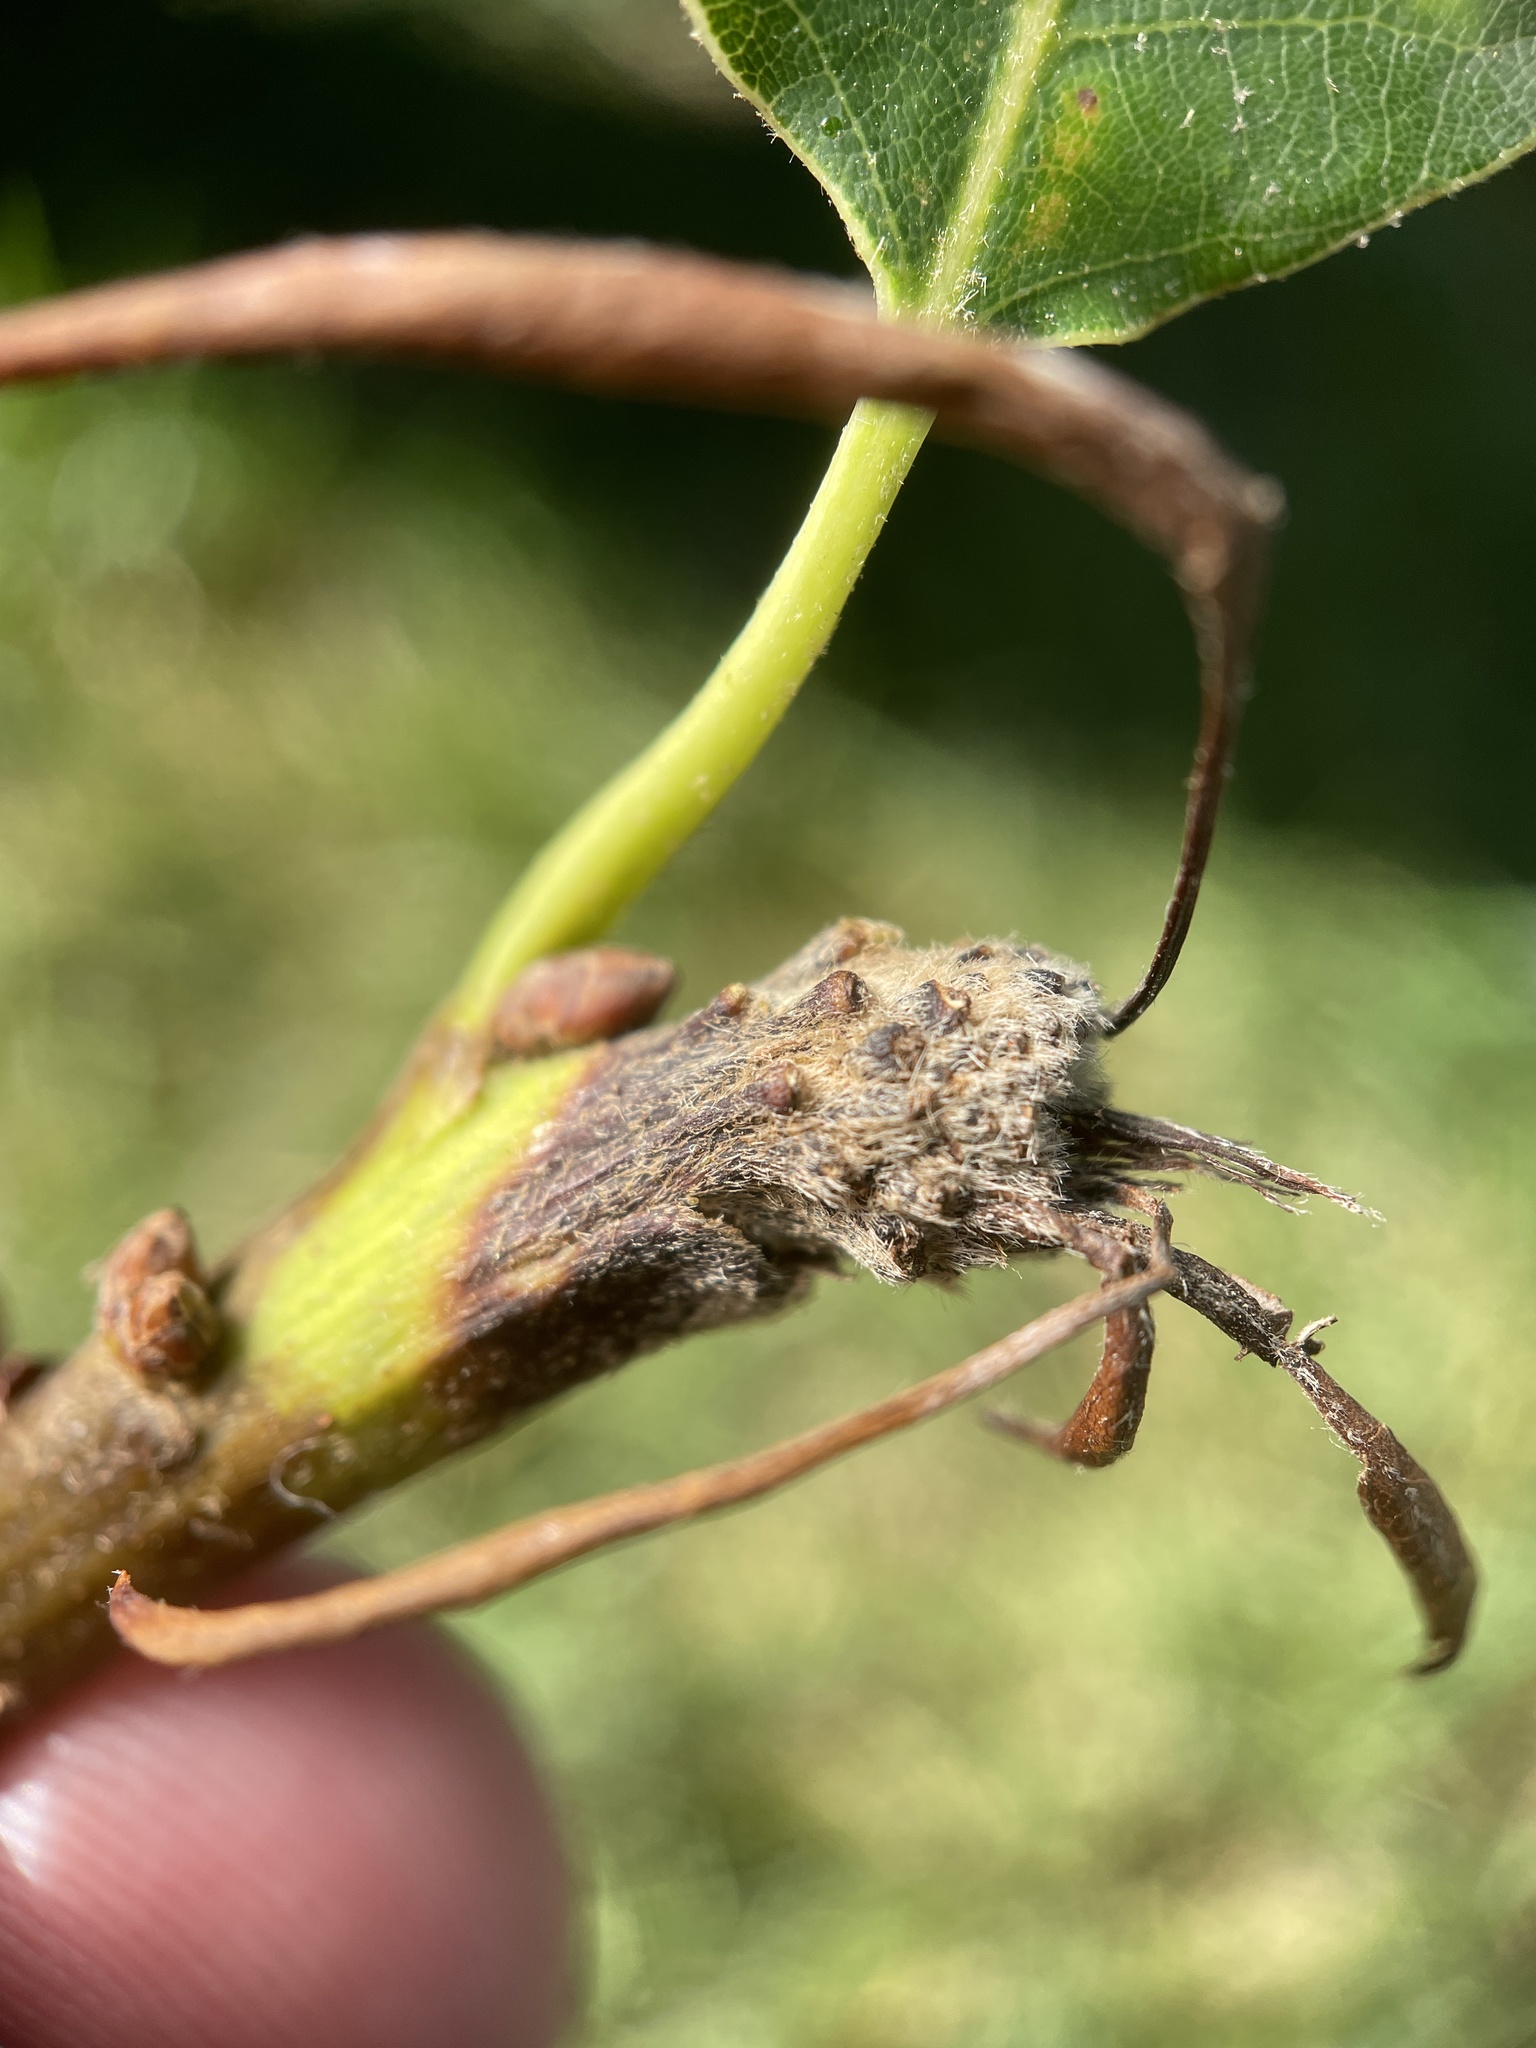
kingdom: Animalia
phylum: Arthropoda
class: Insecta
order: Hymenoptera
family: Cynipidae
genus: Andricus
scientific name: Andricus
